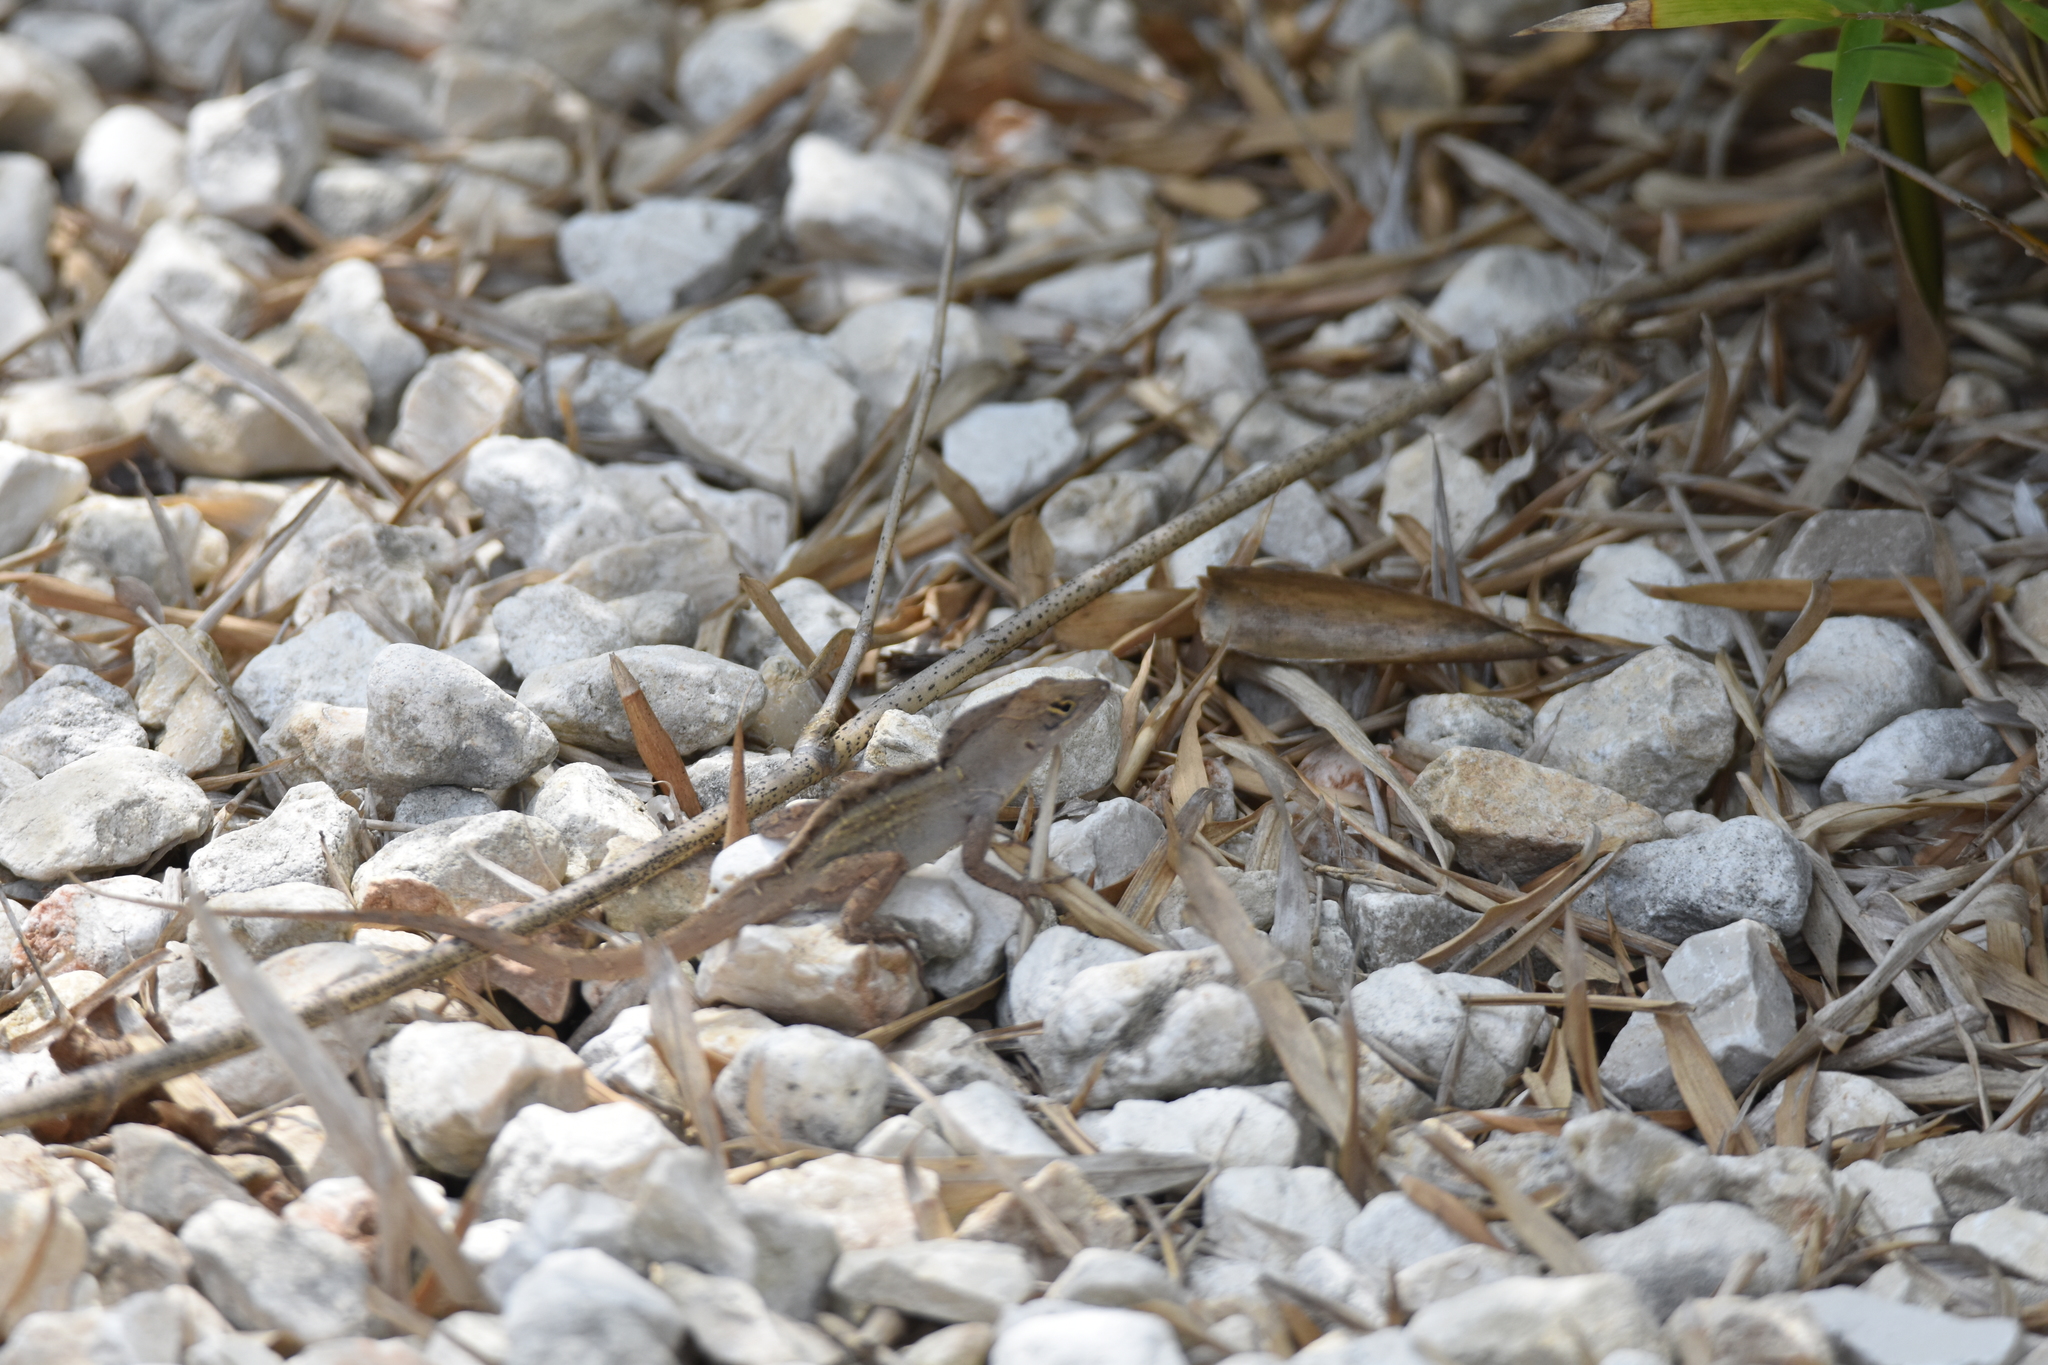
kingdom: Animalia
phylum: Chordata
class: Squamata
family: Dactyloidae
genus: Anolis
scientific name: Anolis sagrei
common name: Brown anole
